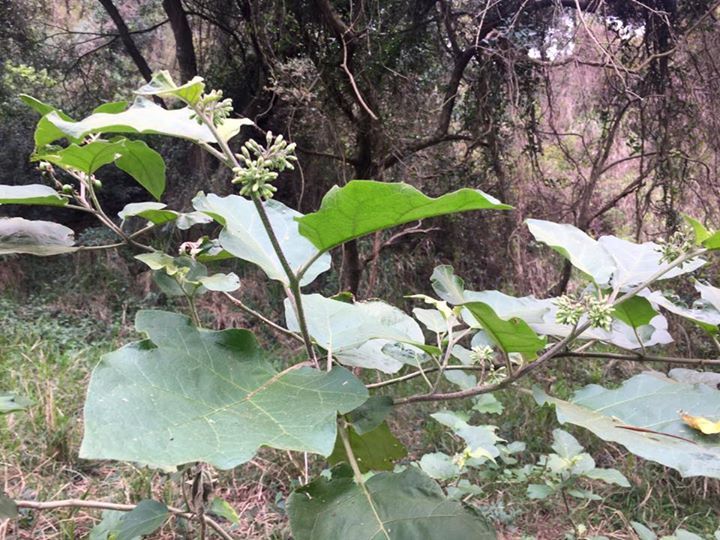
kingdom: Plantae
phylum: Tracheophyta
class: Magnoliopsida
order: Solanales
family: Solanaceae
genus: Solanum
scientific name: Solanum torvum
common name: Turkey berry
